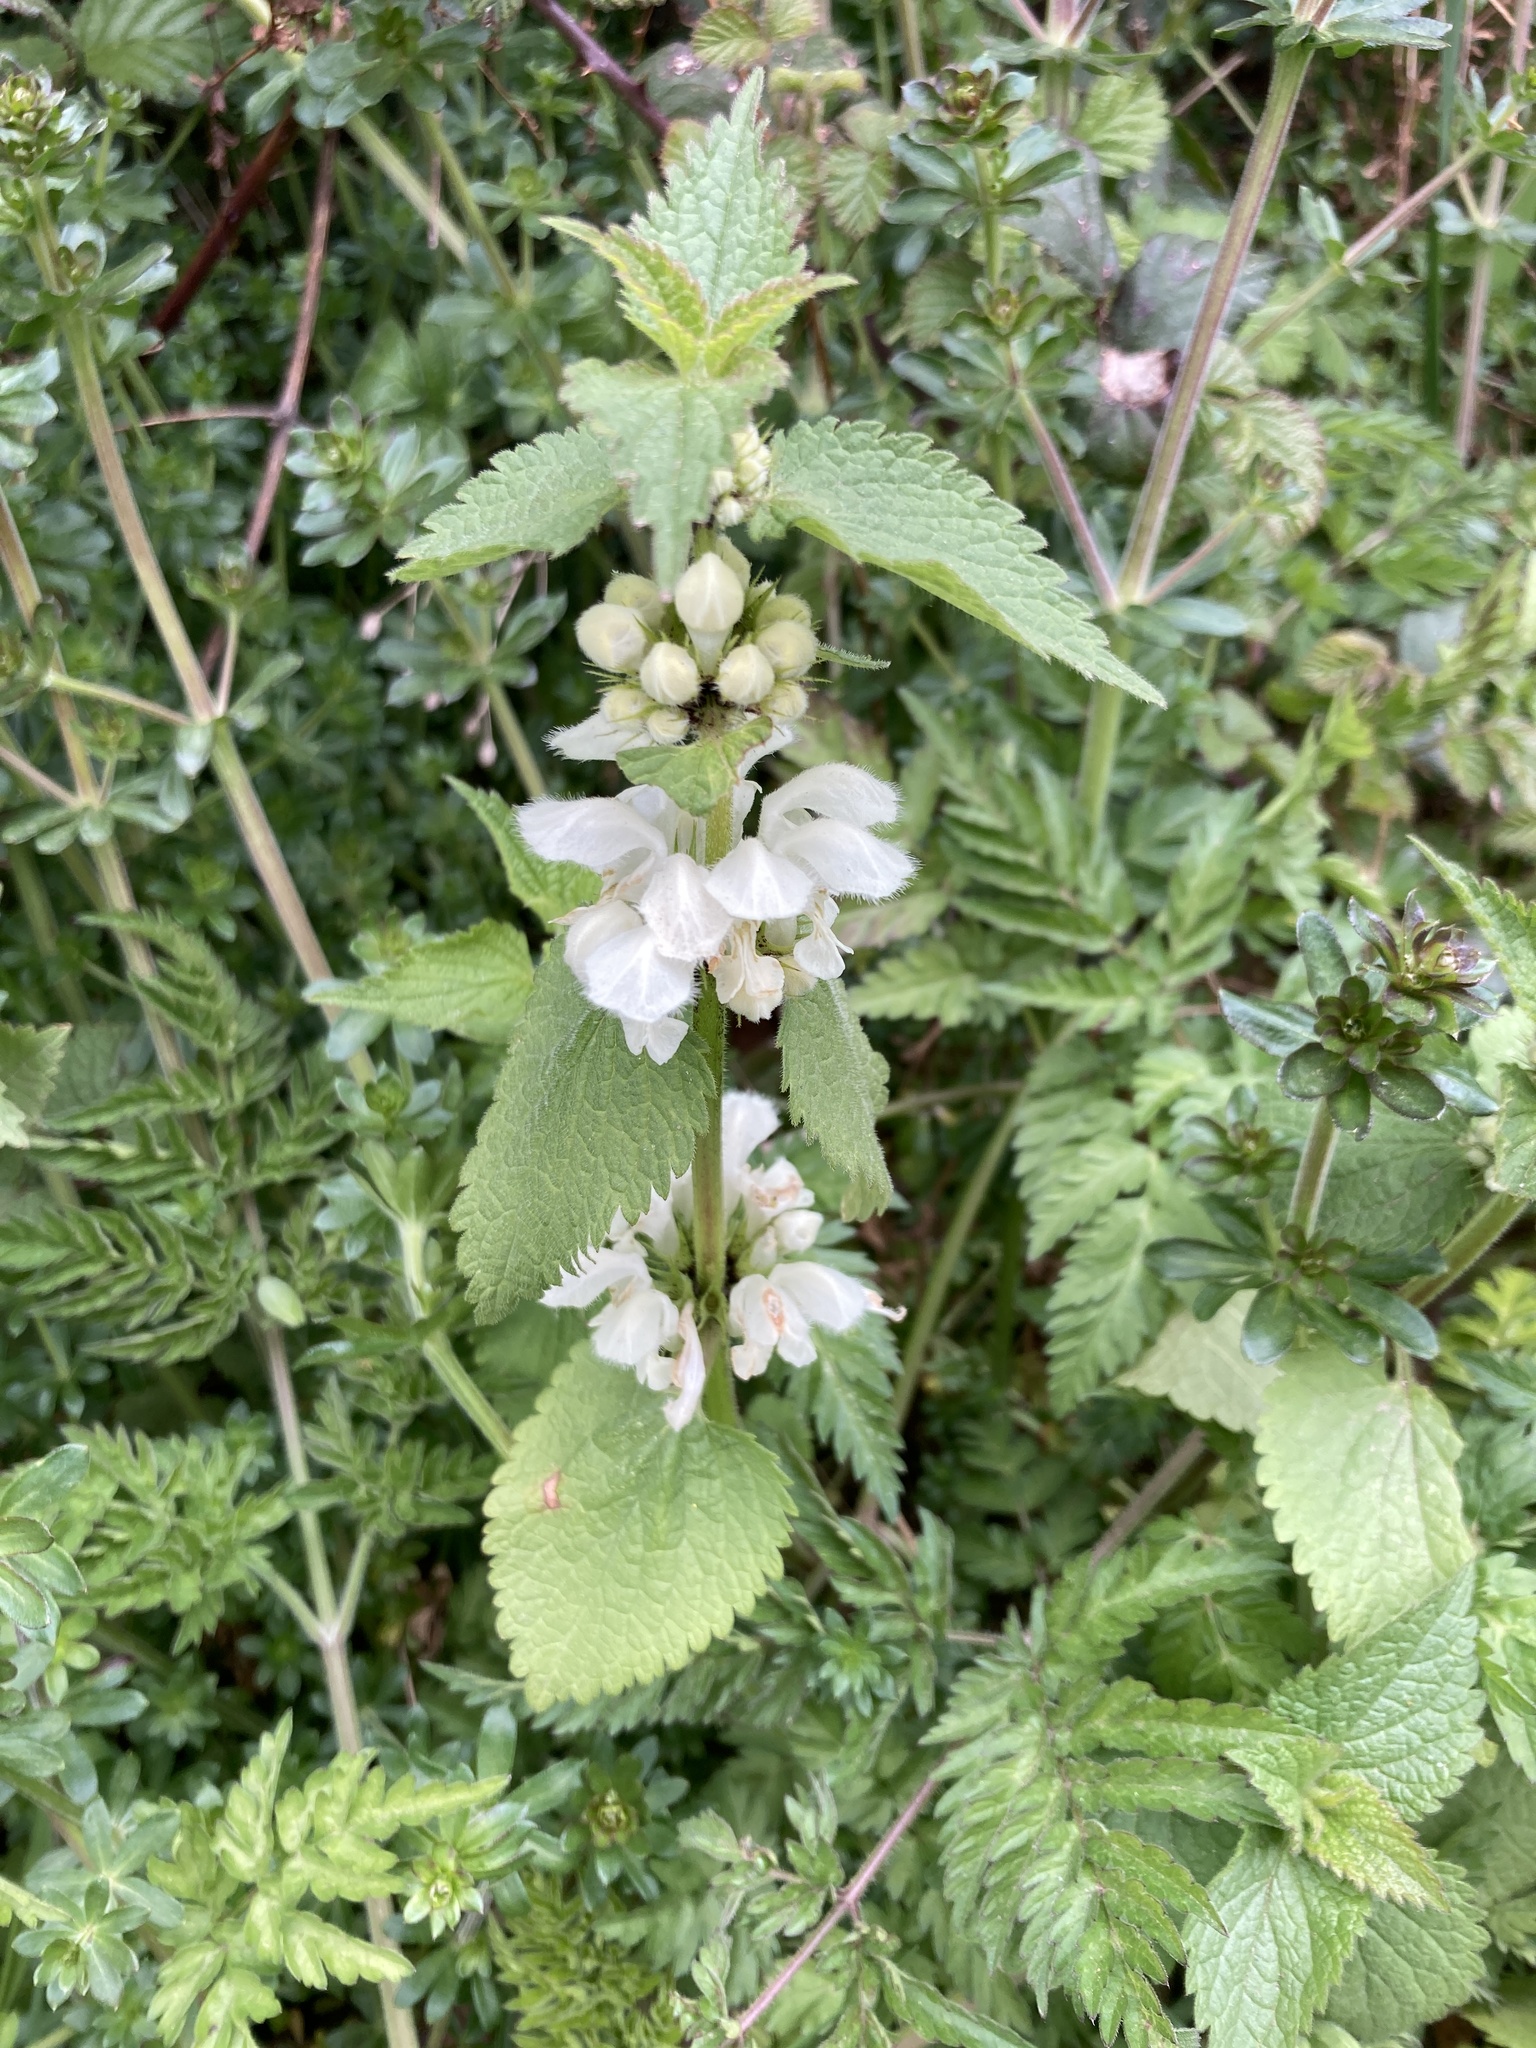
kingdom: Plantae
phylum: Tracheophyta
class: Magnoliopsida
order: Lamiales
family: Lamiaceae
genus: Lamium
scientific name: Lamium album
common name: White dead-nettle
